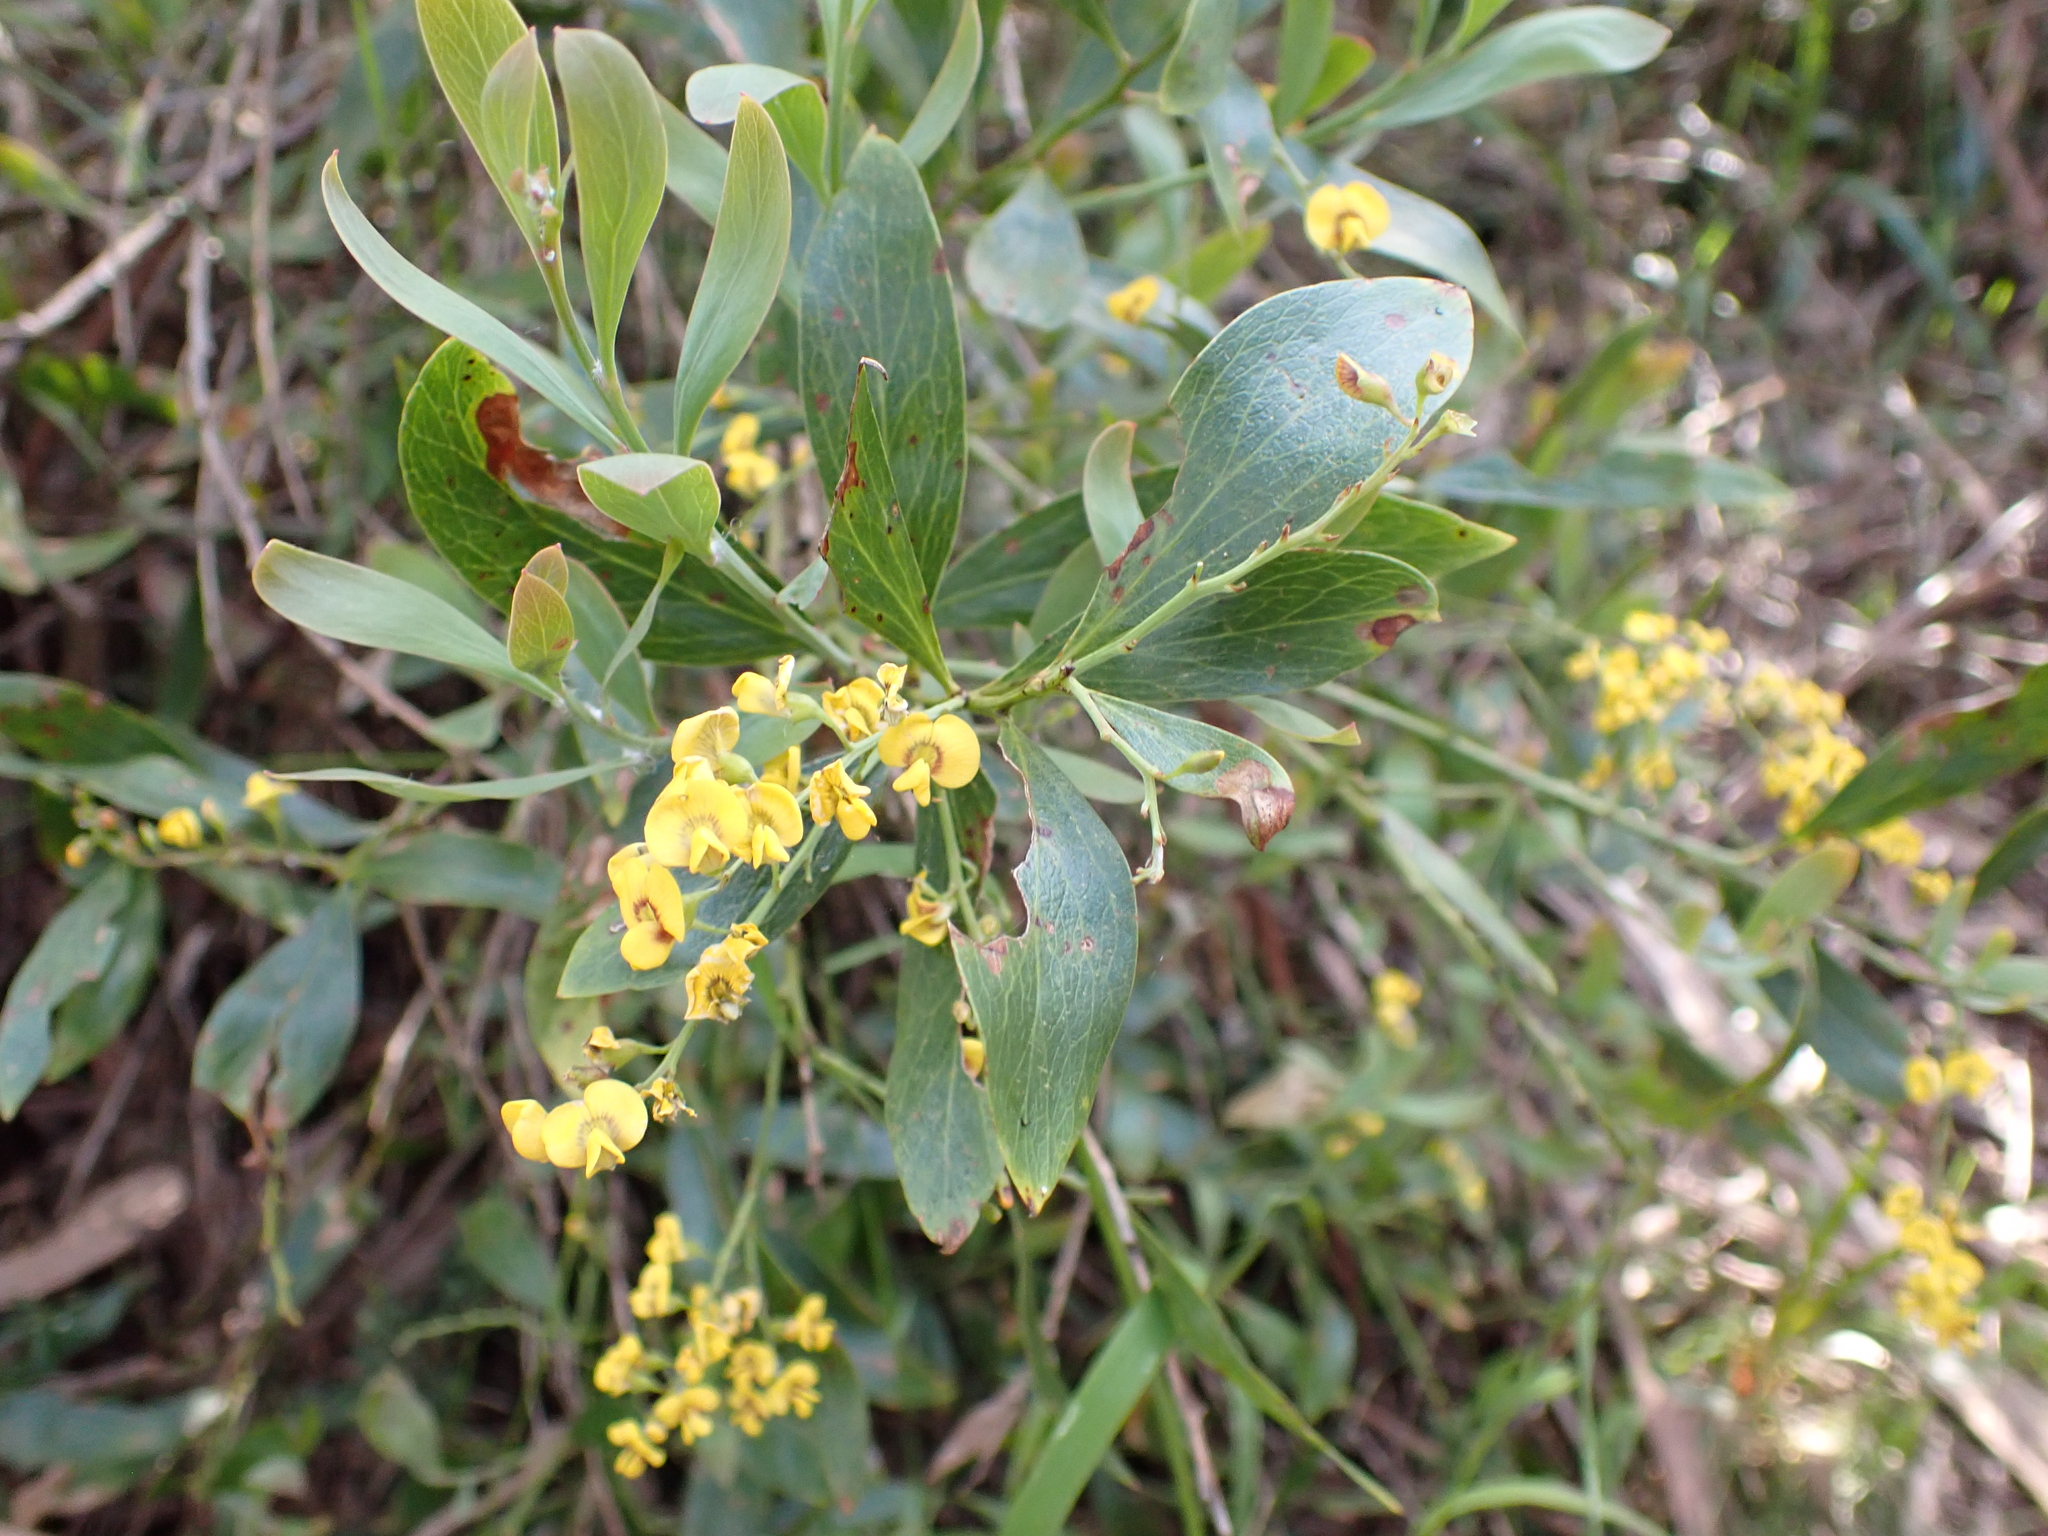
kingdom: Plantae
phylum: Tracheophyta
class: Magnoliopsida
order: Fabales
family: Fabaceae
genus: Daviesia
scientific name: Daviesia laxiflora
